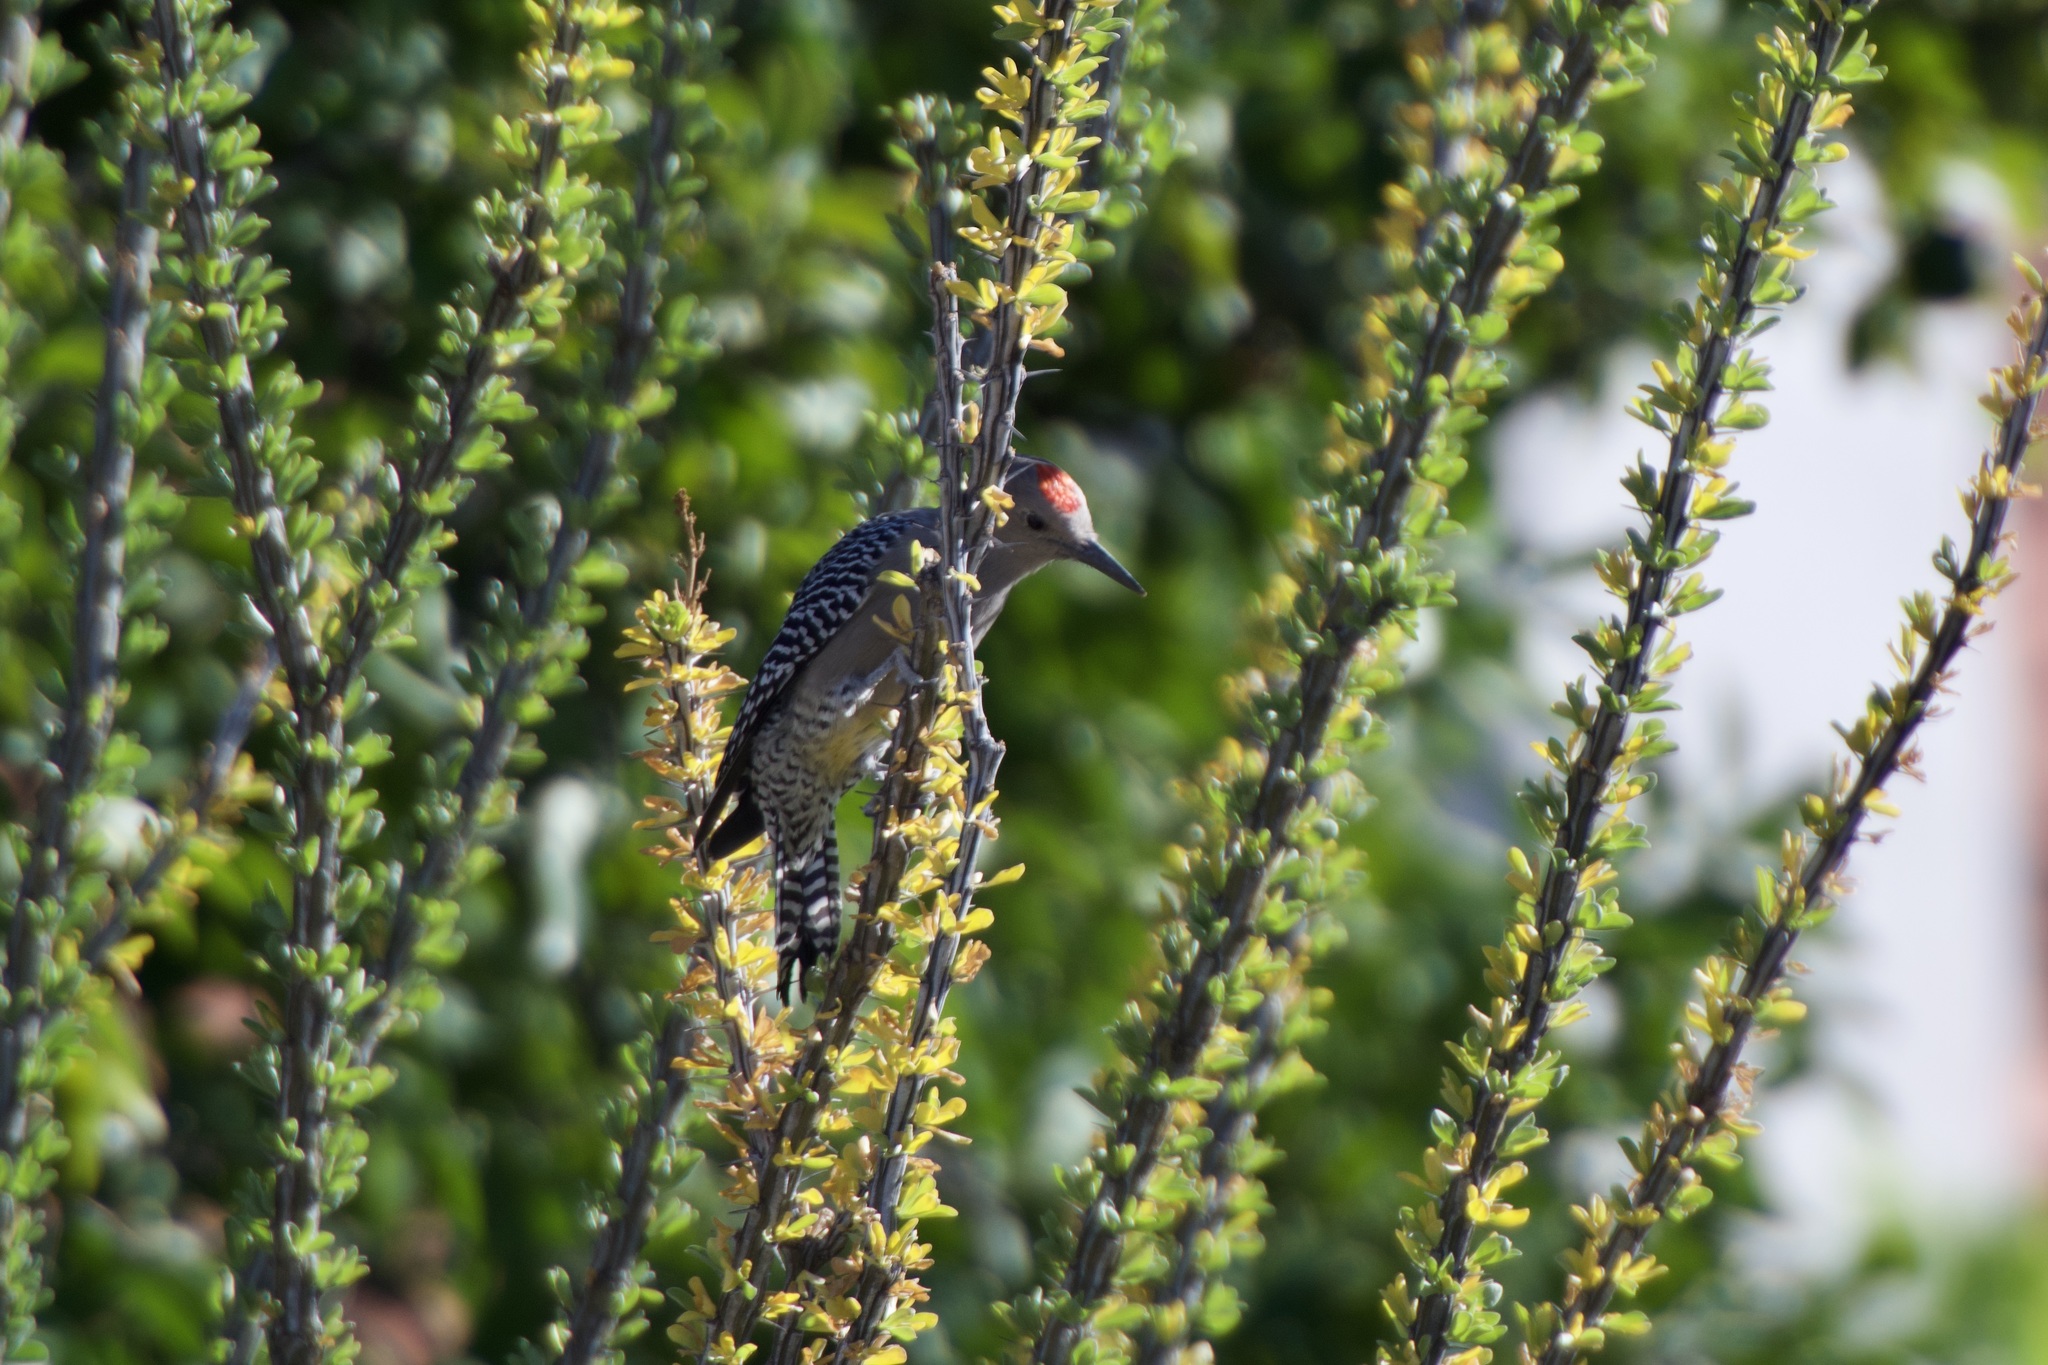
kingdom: Animalia
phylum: Chordata
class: Aves
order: Piciformes
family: Picidae
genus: Melanerpes
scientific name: Melanerpes uropygialis
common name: Gila woodpecker
